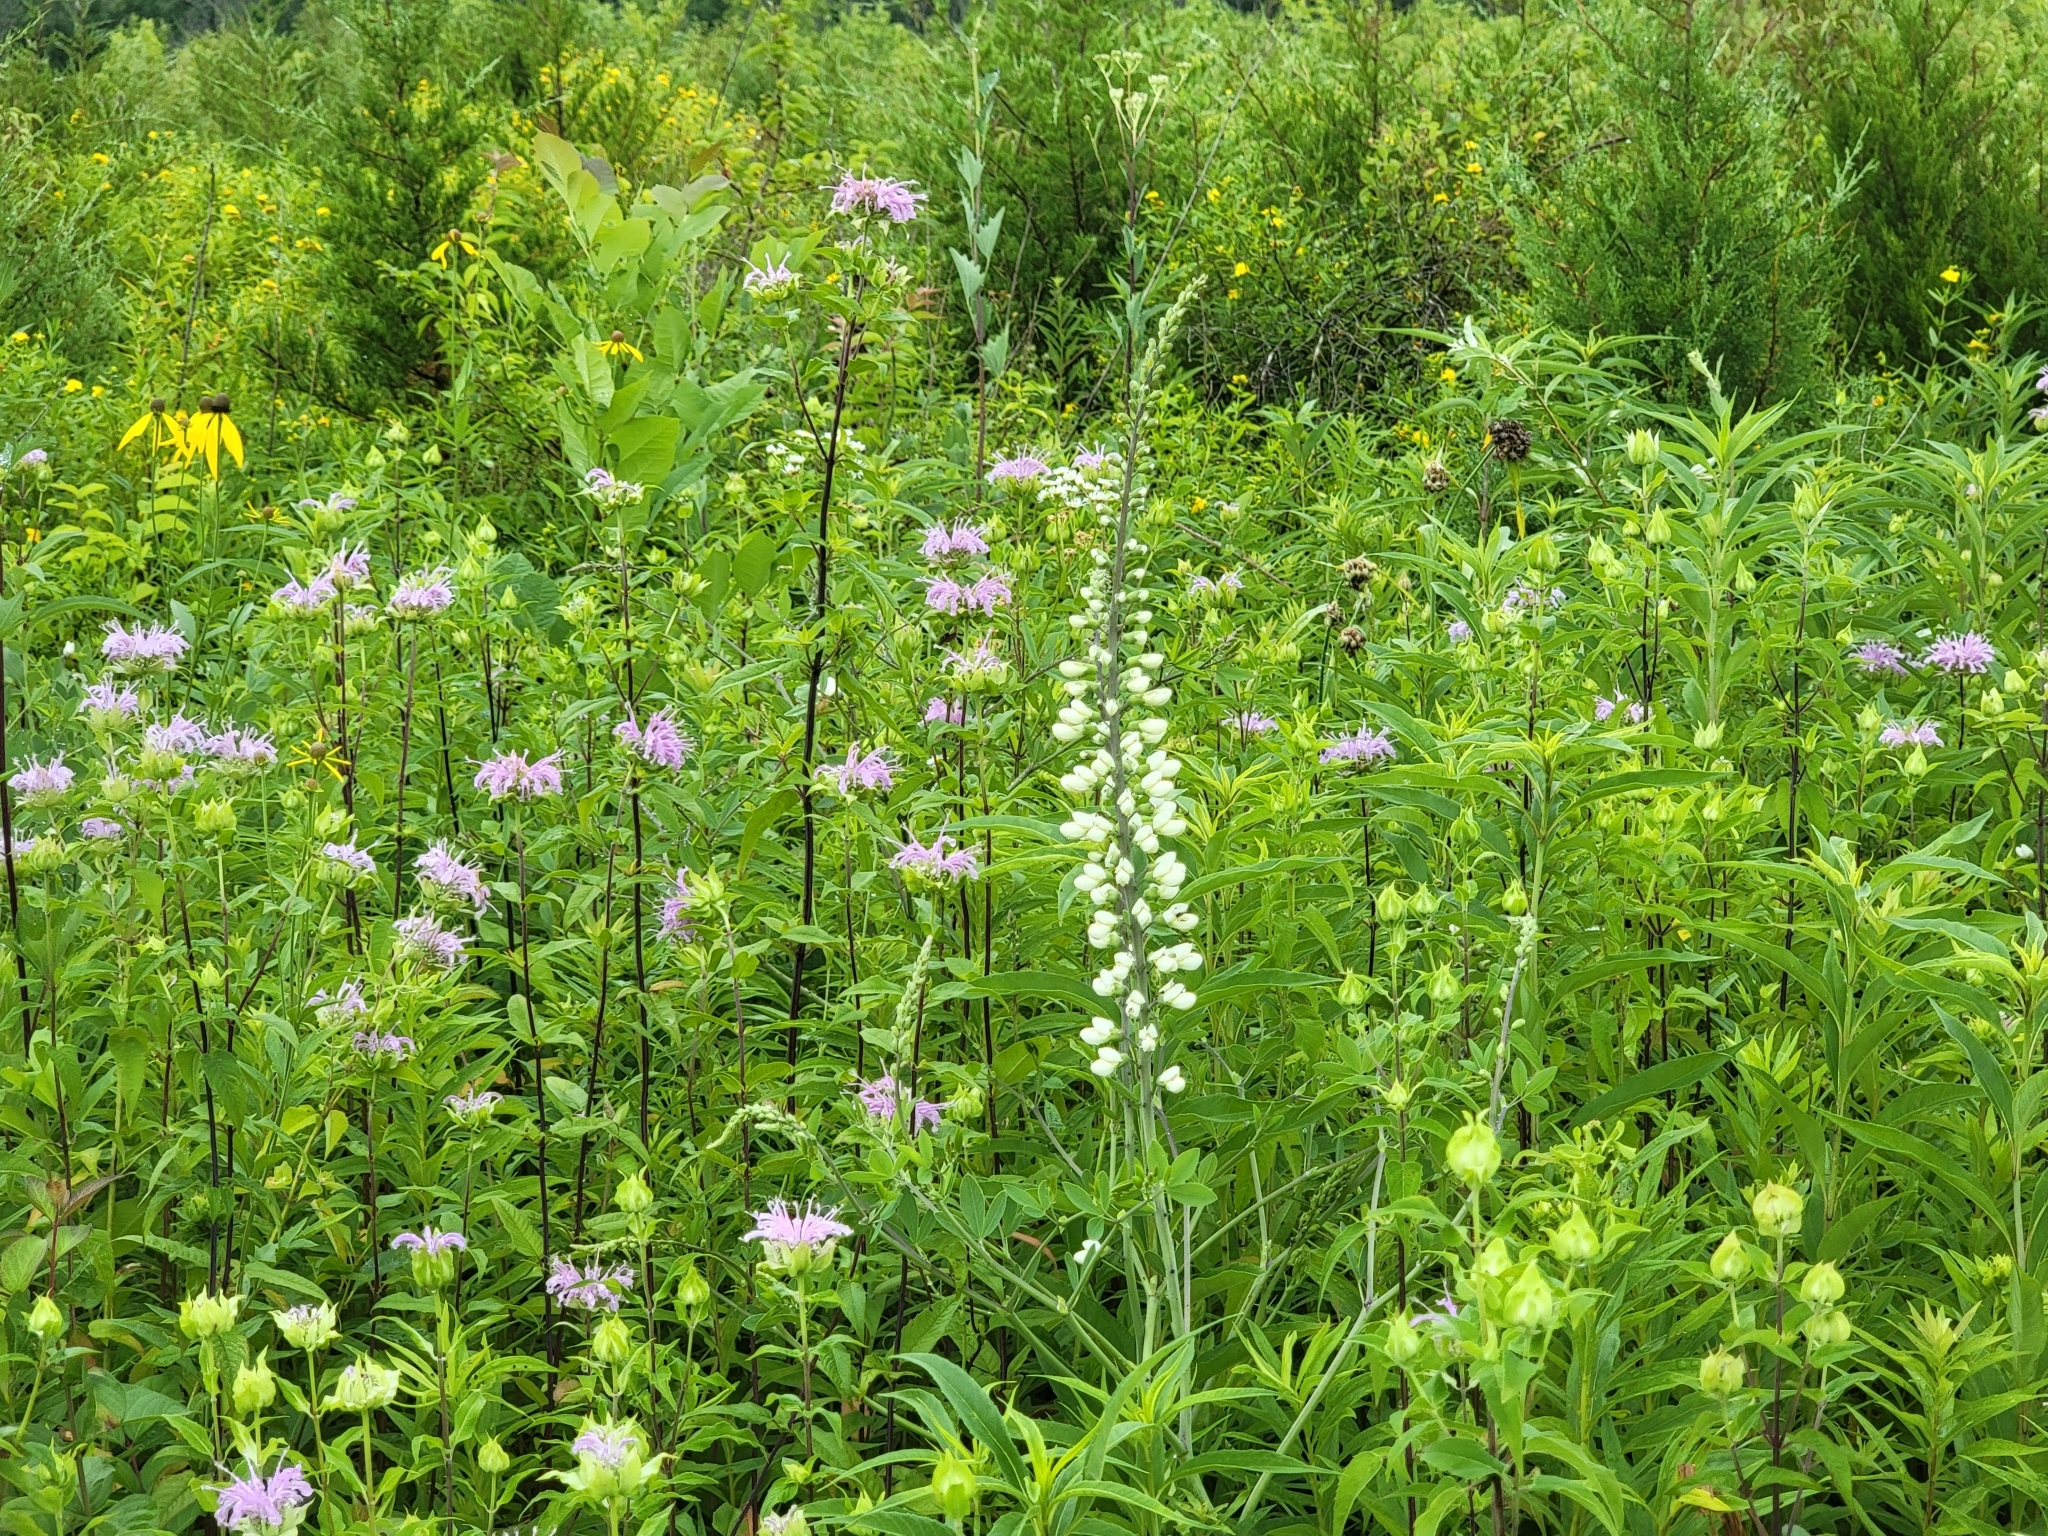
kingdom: Plantae
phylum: Tracheophyta
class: Magnoliopsida
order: Fabales
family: Fabaceae
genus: Baptisia
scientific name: Baptisia alba
